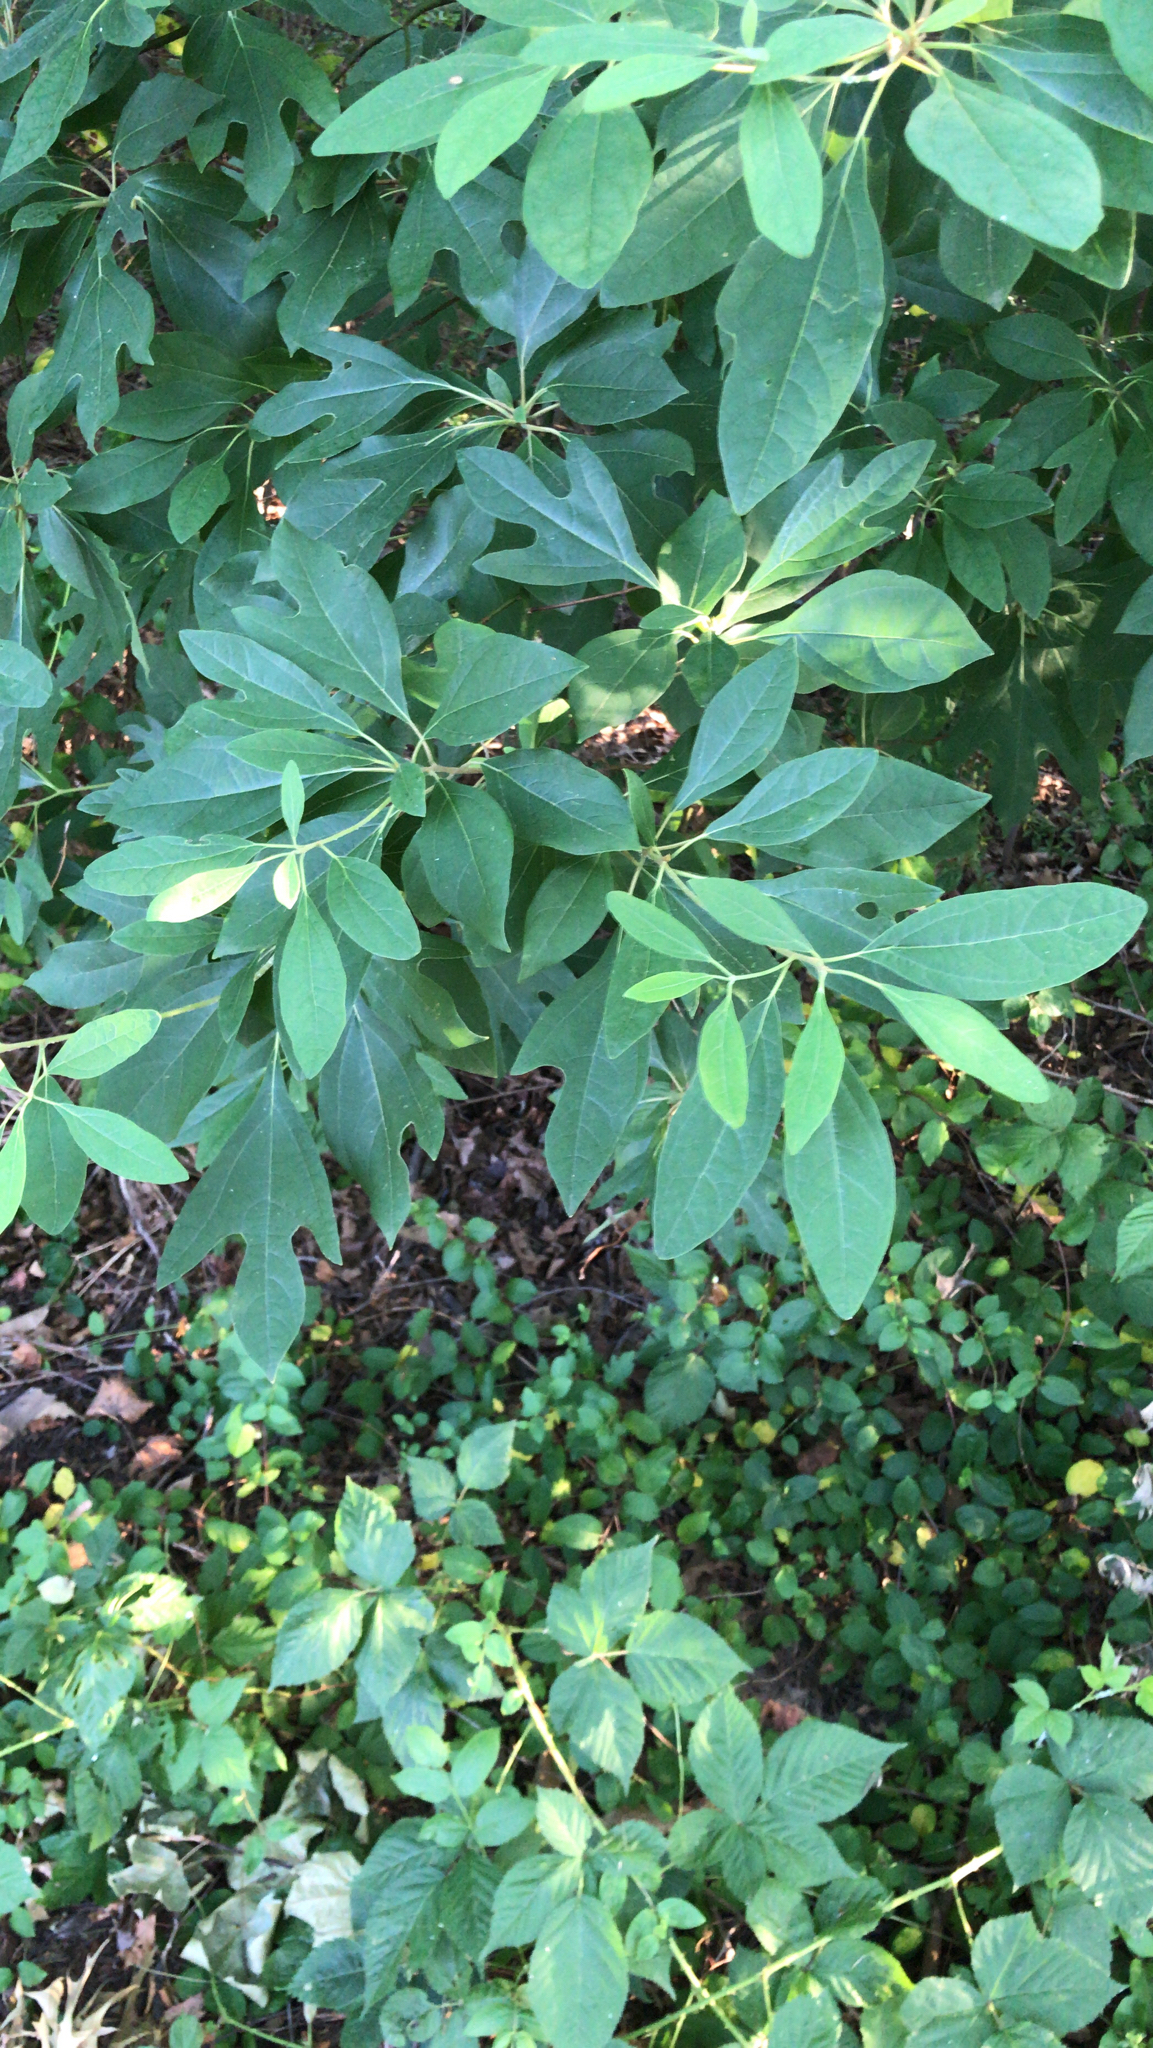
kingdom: Plantae
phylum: Tracheophyta
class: Magnoliopsida
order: Laurales
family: Lauraceae
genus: Sassafras
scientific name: Sassafras albidum
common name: Sassafras
